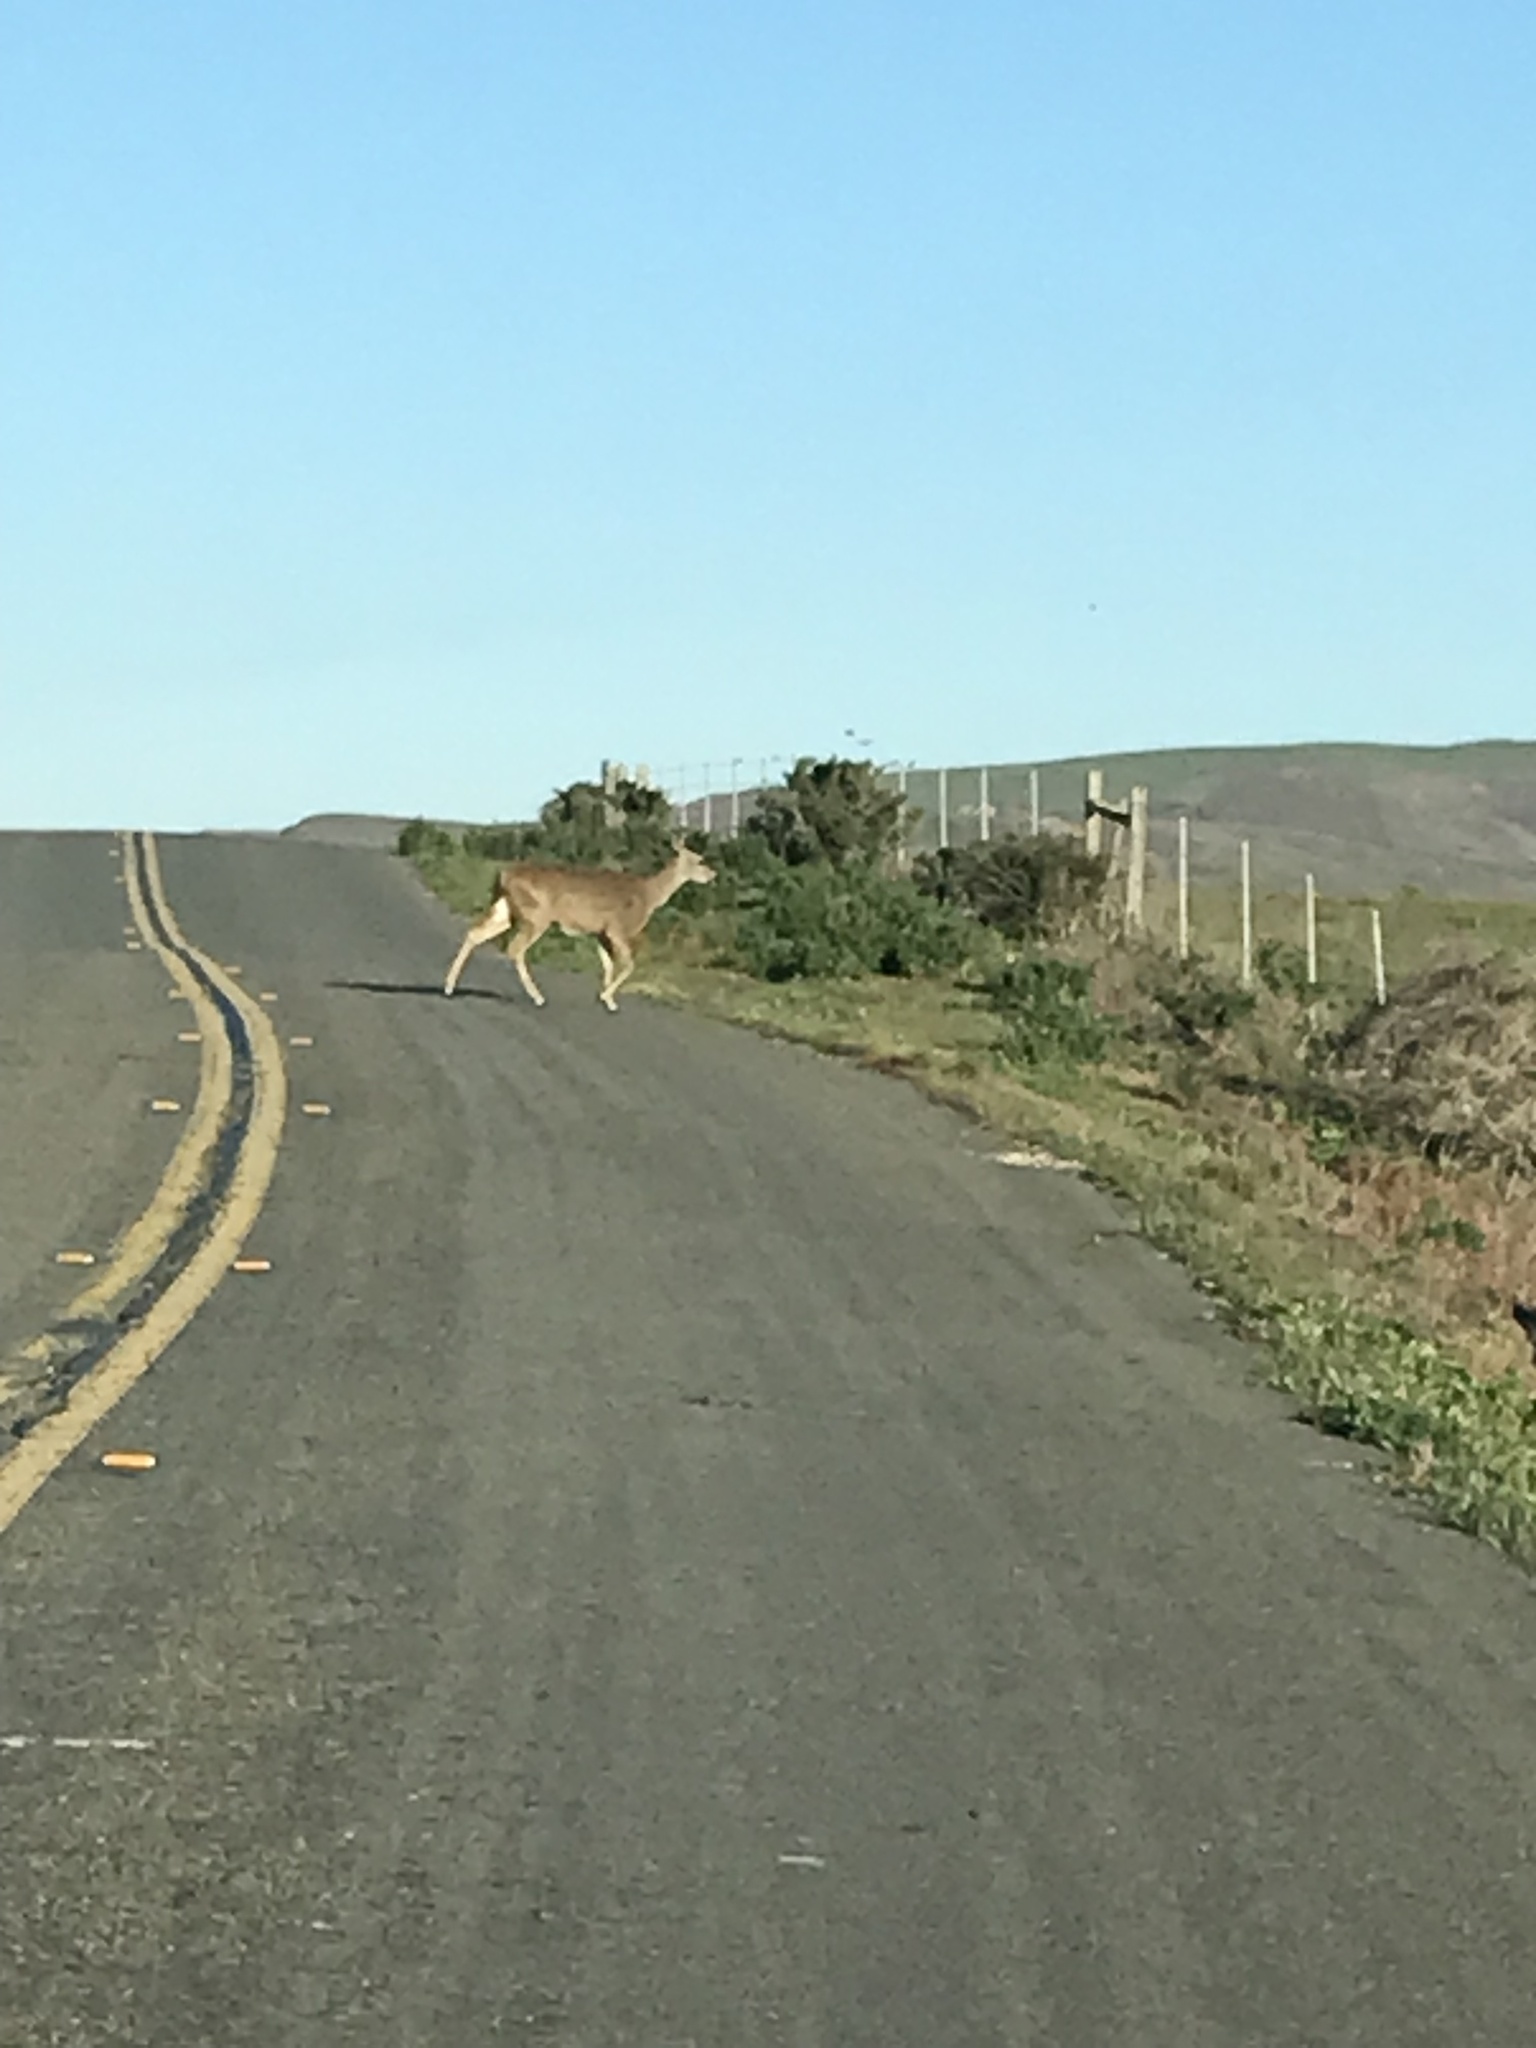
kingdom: Animalia
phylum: Chordata
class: Mammalia
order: Artiodactyla
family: Cervidae
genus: Odocoileus
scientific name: Odocoileus hemionus
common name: Mule deer
